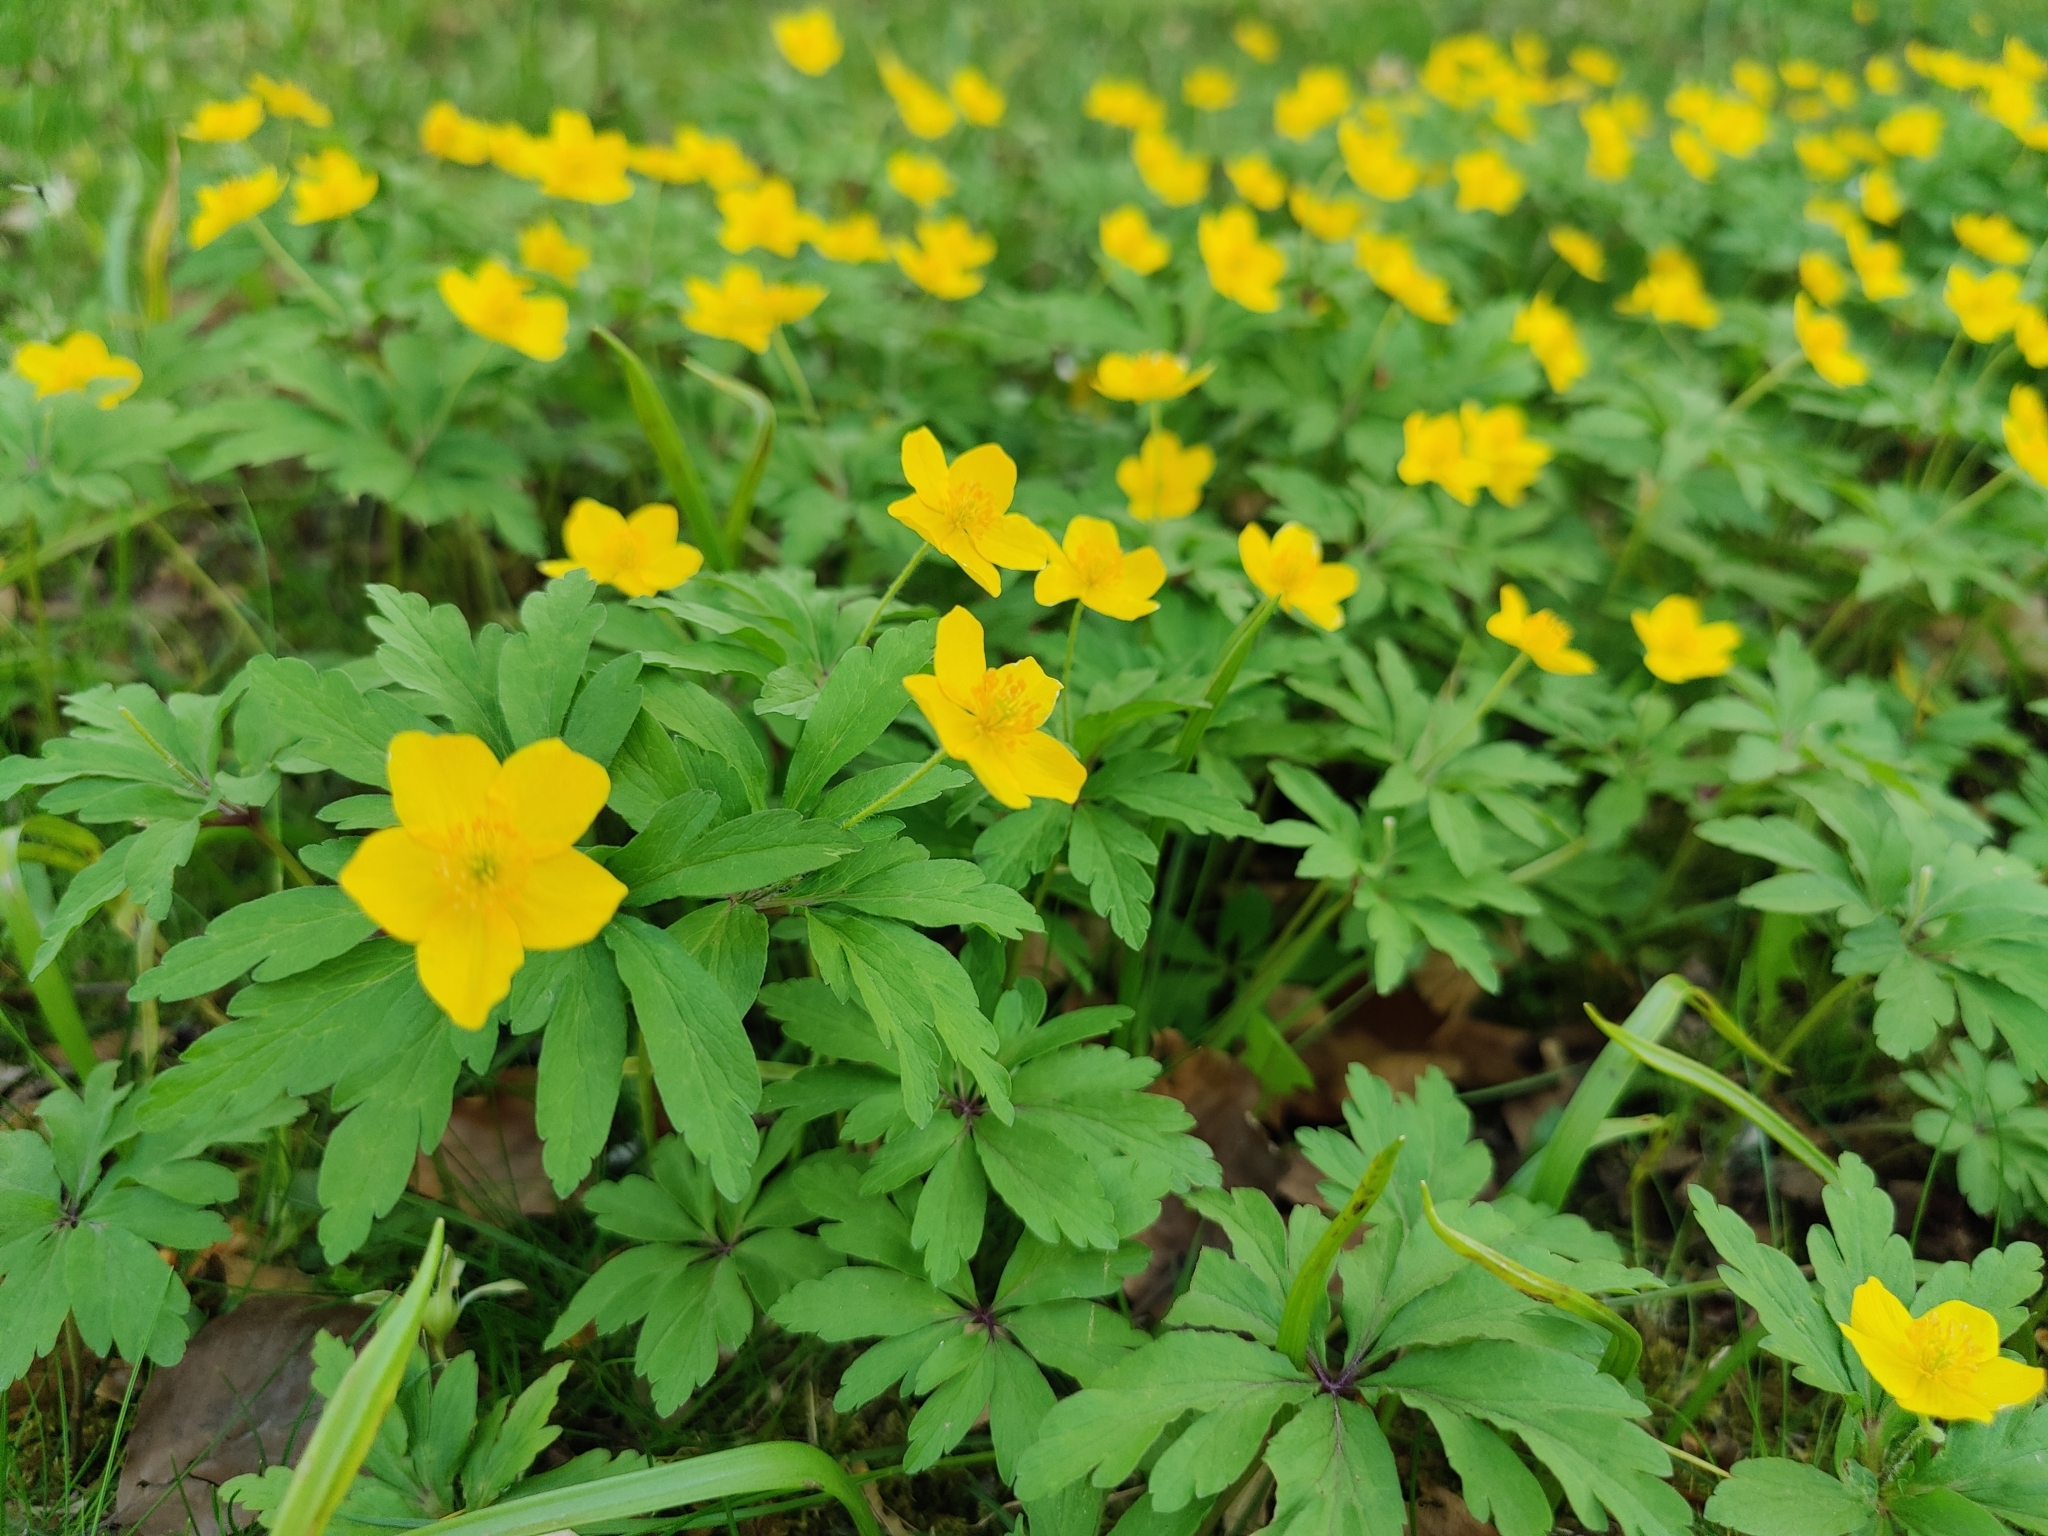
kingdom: Plantae
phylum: Tracheophyta
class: Magnoliopsida
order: Ranunculales
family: Ranunculaceae
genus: Anemone
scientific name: Anemone ranunculoides
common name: Yellow anemone
